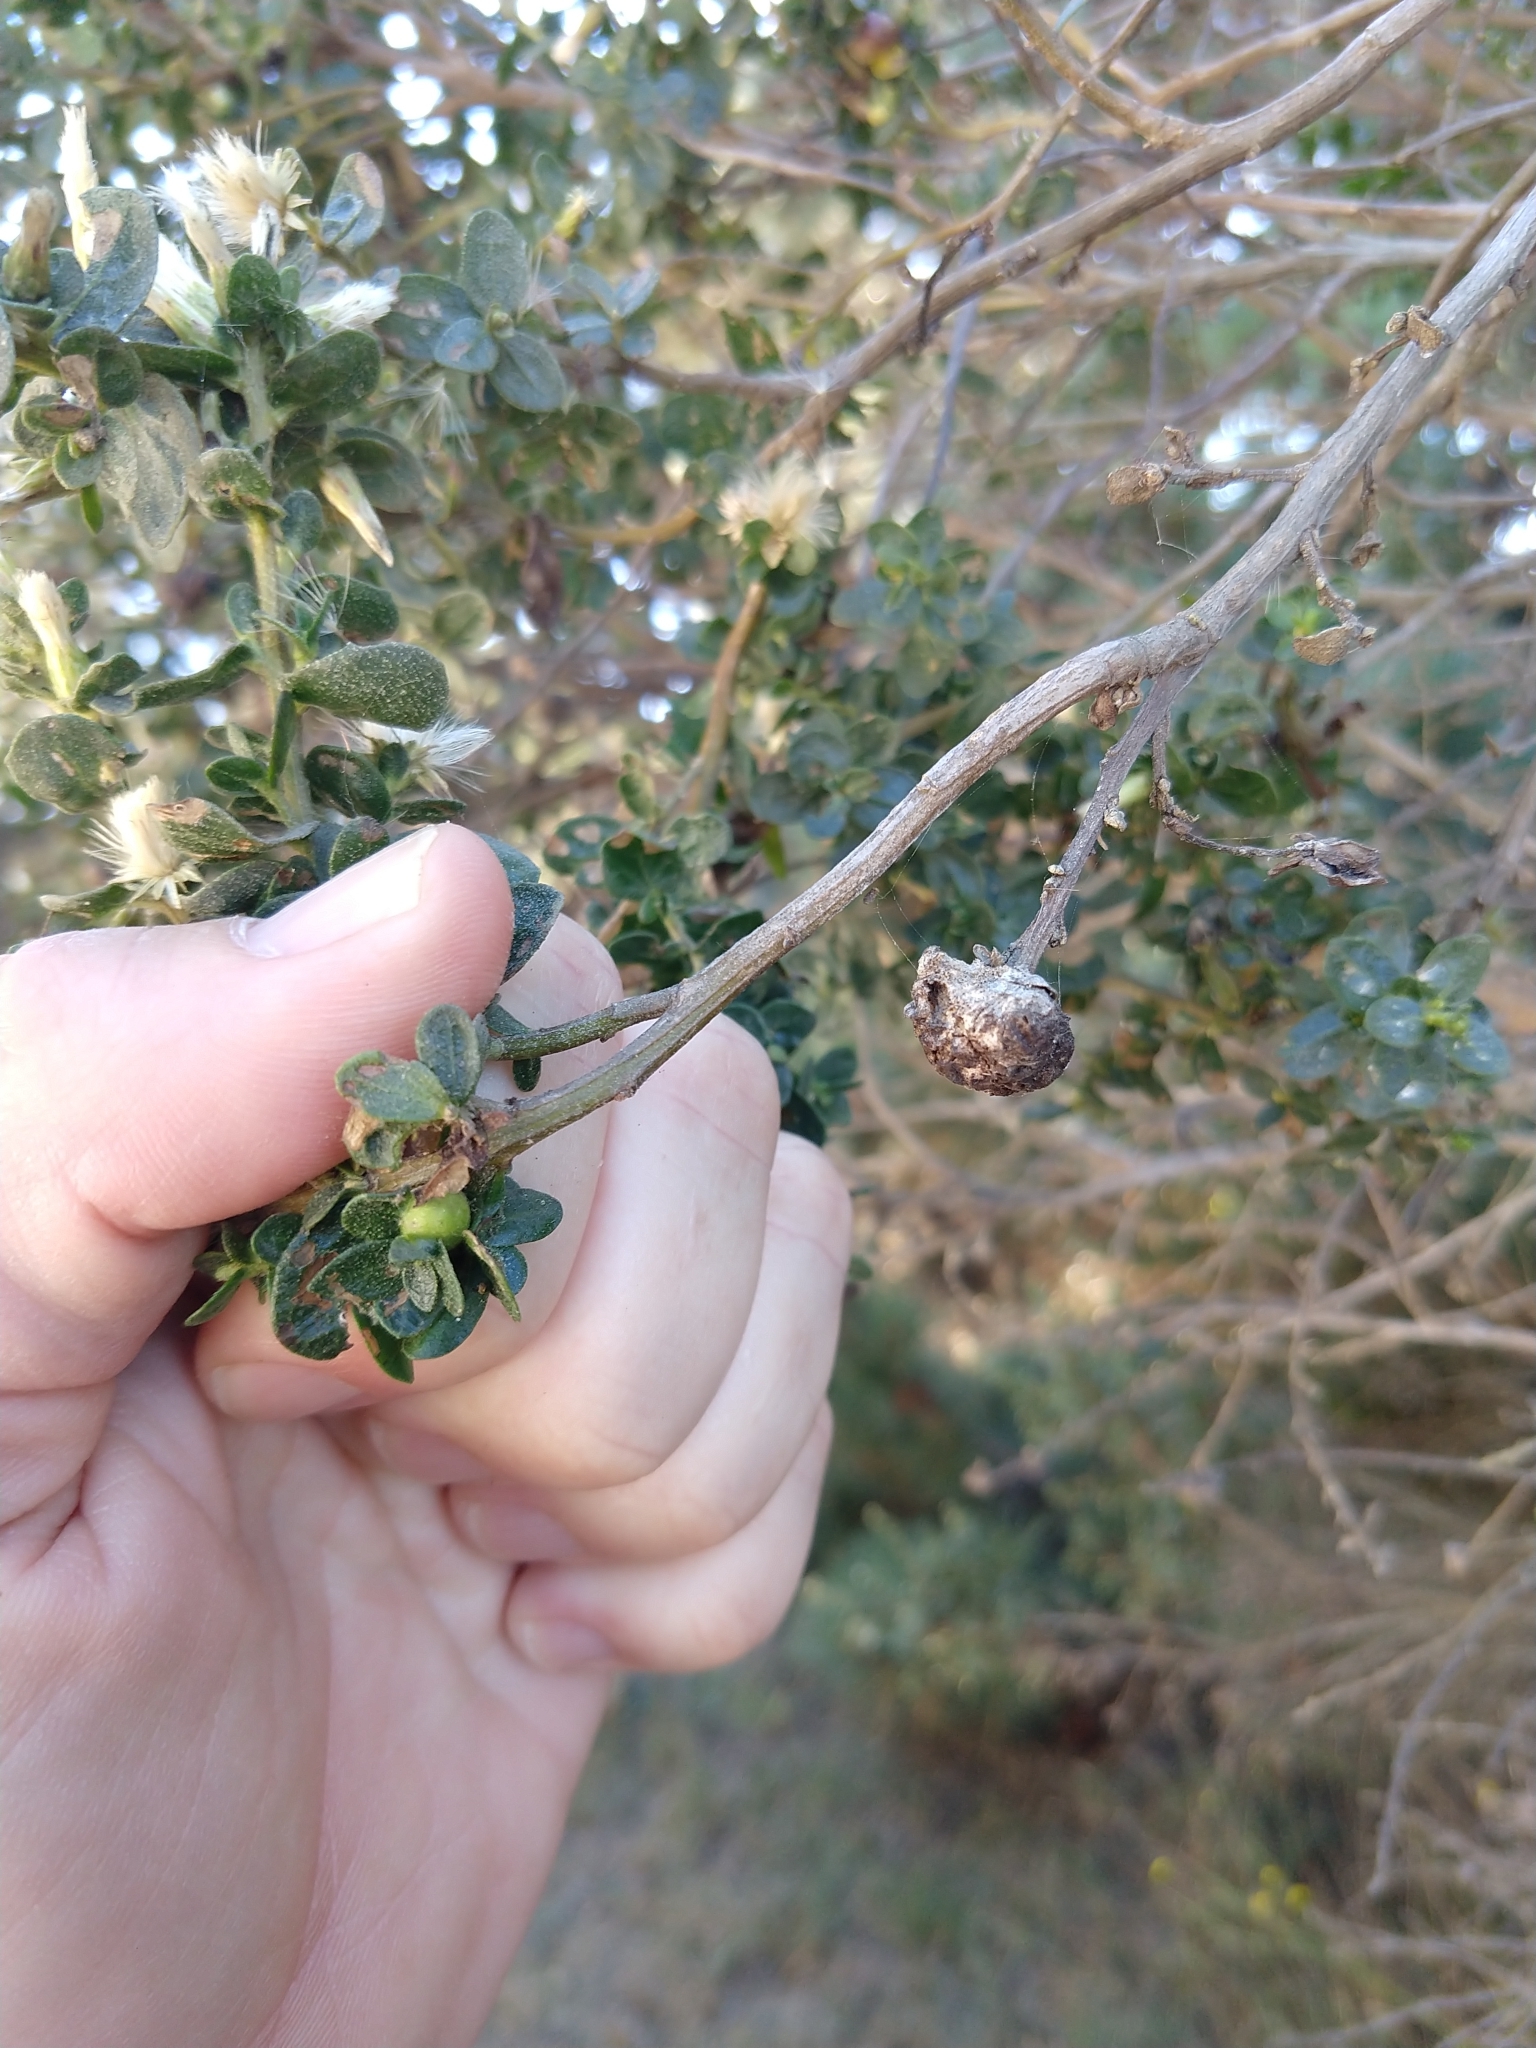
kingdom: Animalia
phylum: Arthropoda
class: Insecta
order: Diptera
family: Cecidomyiidae
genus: Rhopalomyia
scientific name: Rhopalomyia californica
